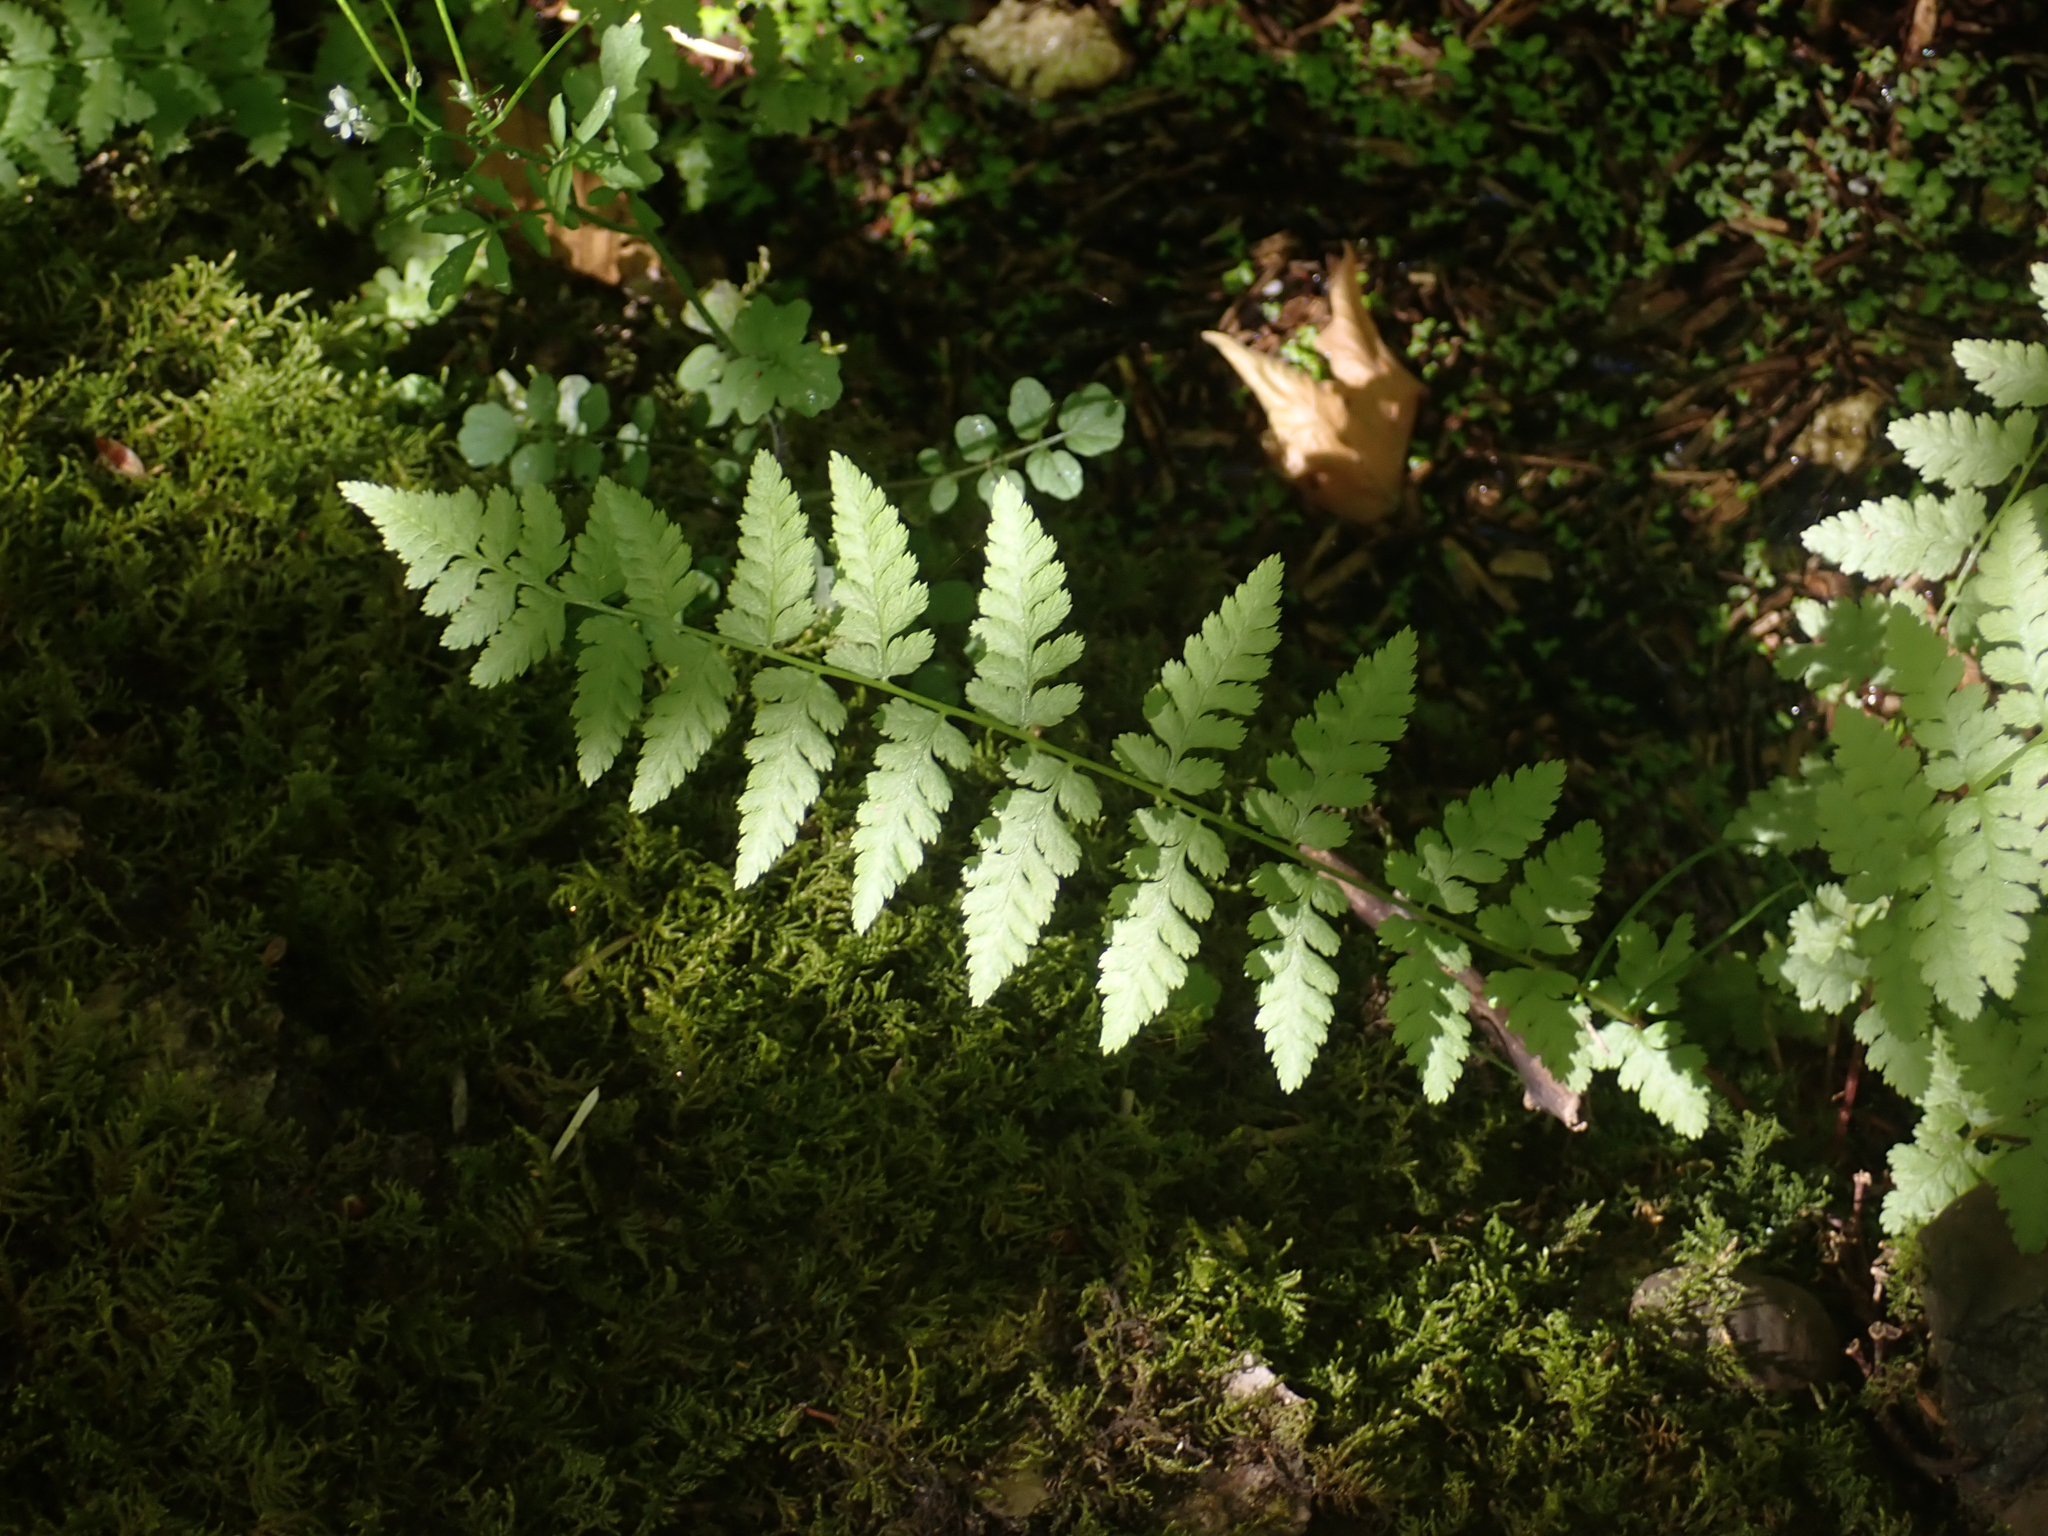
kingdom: Plantae
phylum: Tracheophyta
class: Polypodiopsida
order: Polypodiales
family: Polypodiaceae
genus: Polypodium
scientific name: Polypodium glycyrrhiza
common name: Licorice fern
